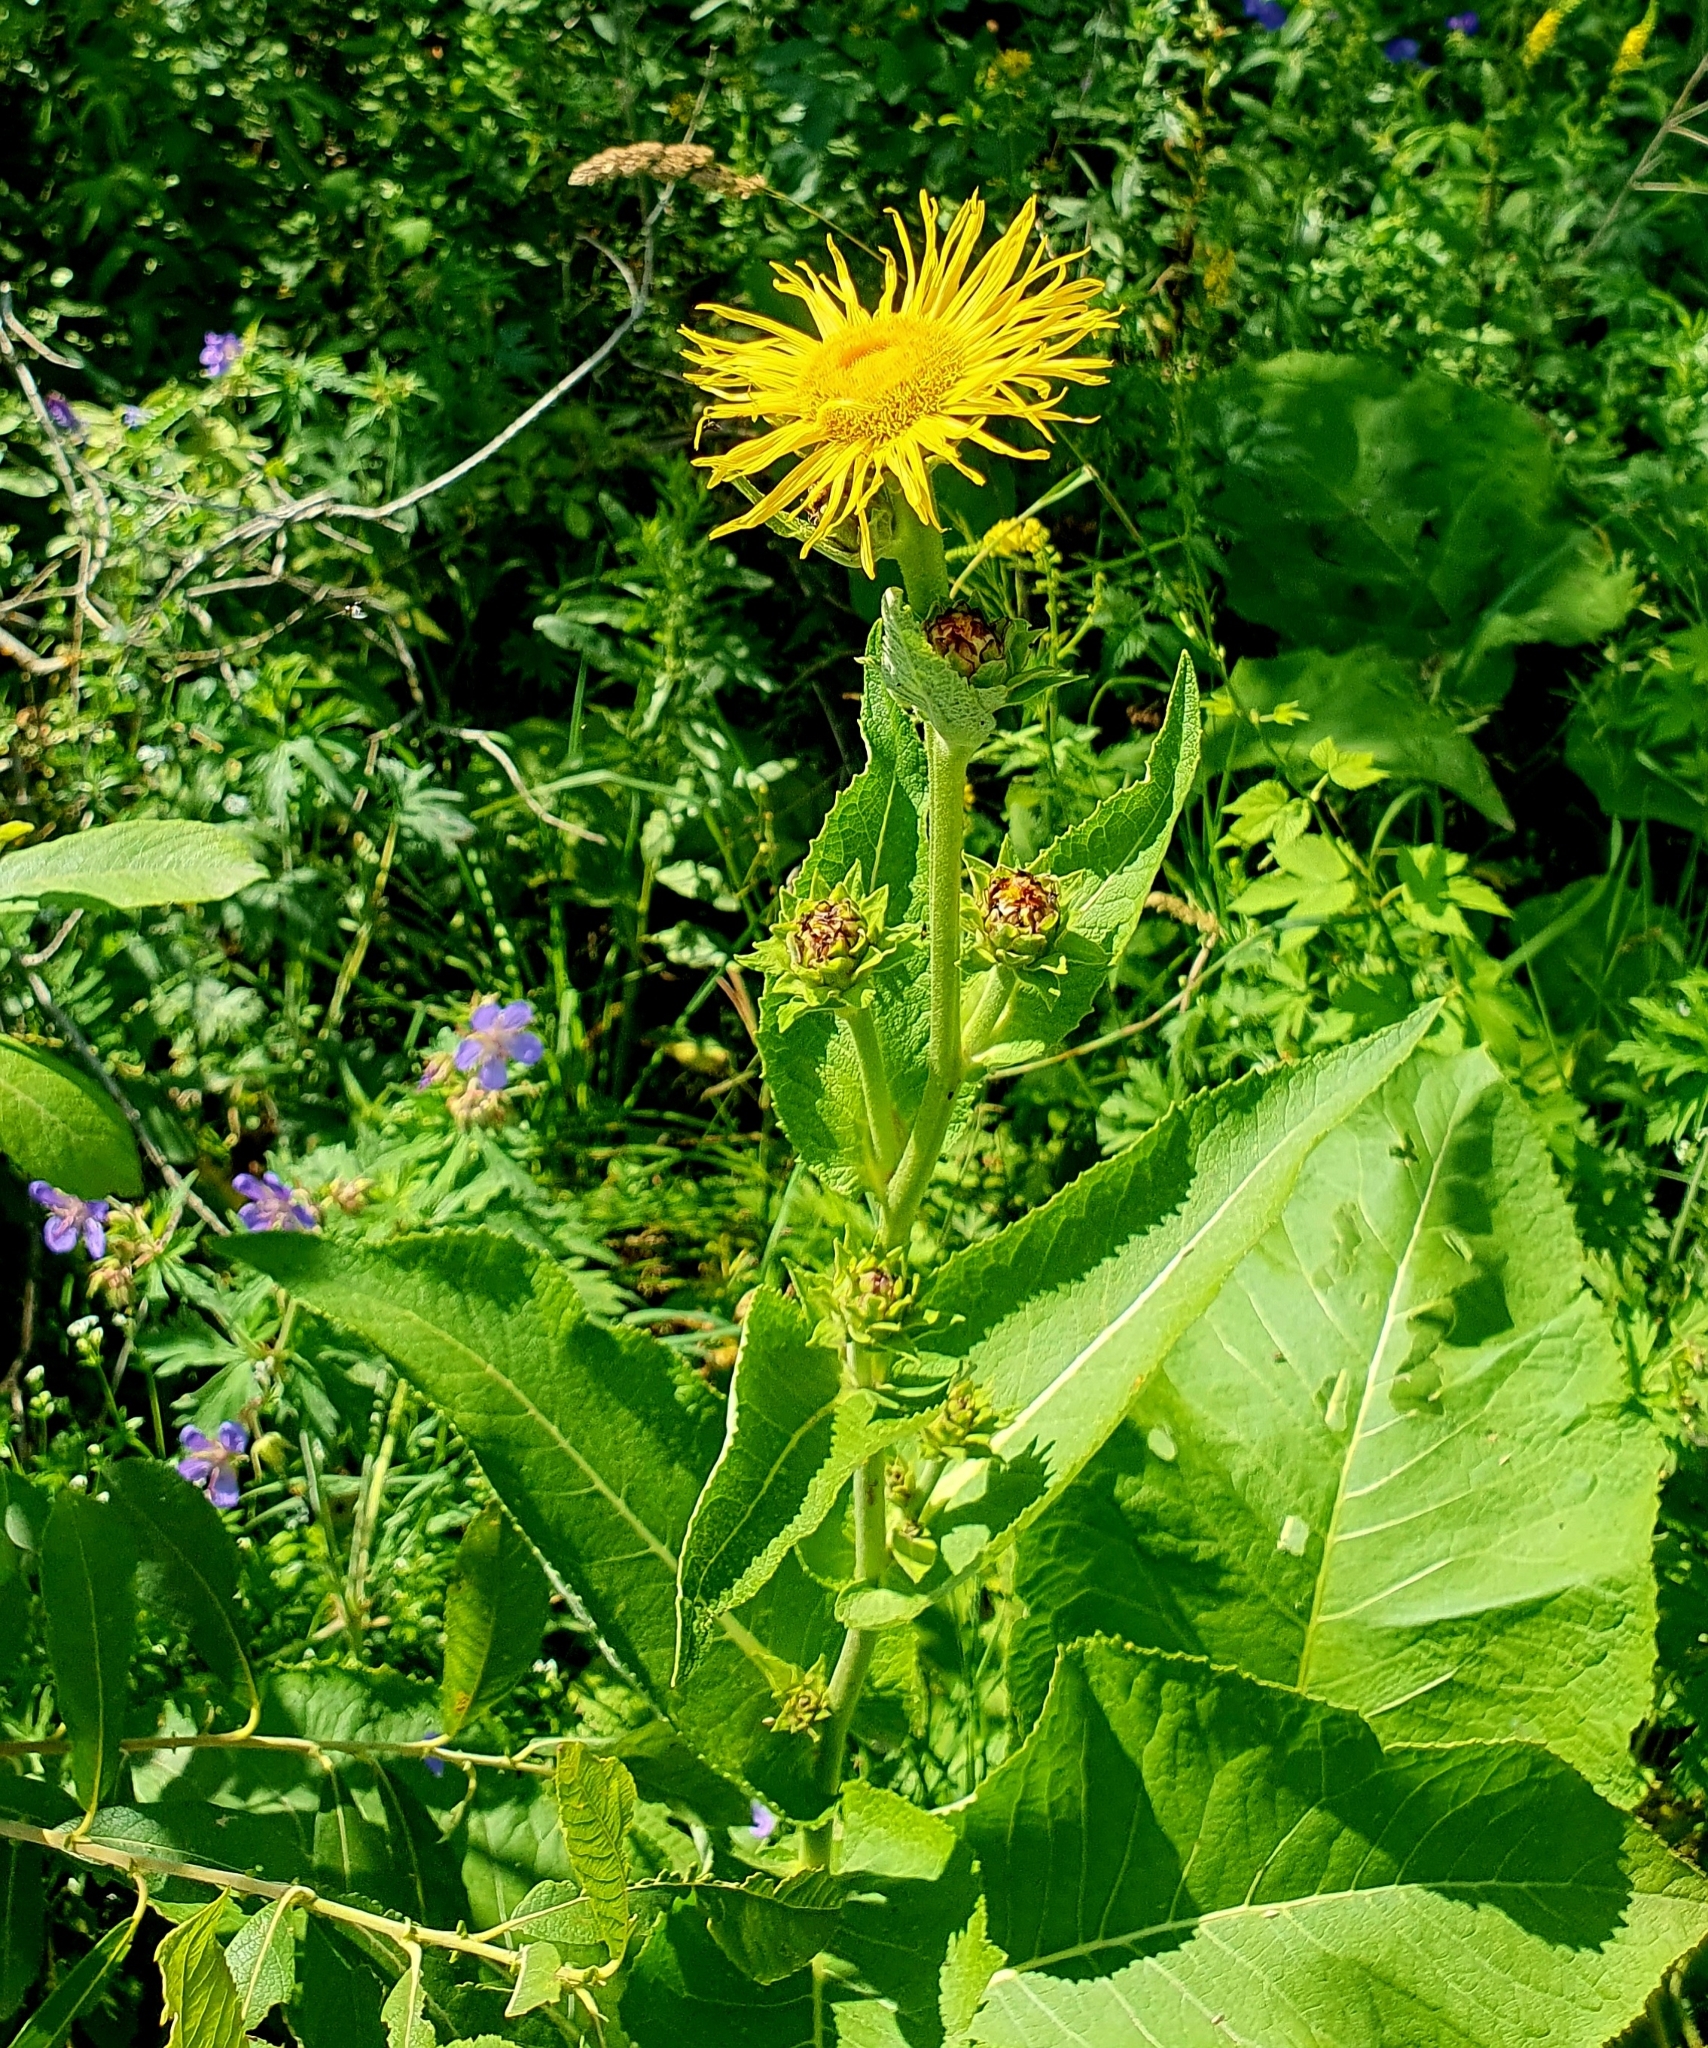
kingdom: Plantae
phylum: Tracheophyta
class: Magnoliopsida
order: Asterales
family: Asteraceae
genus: Inula
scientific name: Inula helenium
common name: Elecampane
